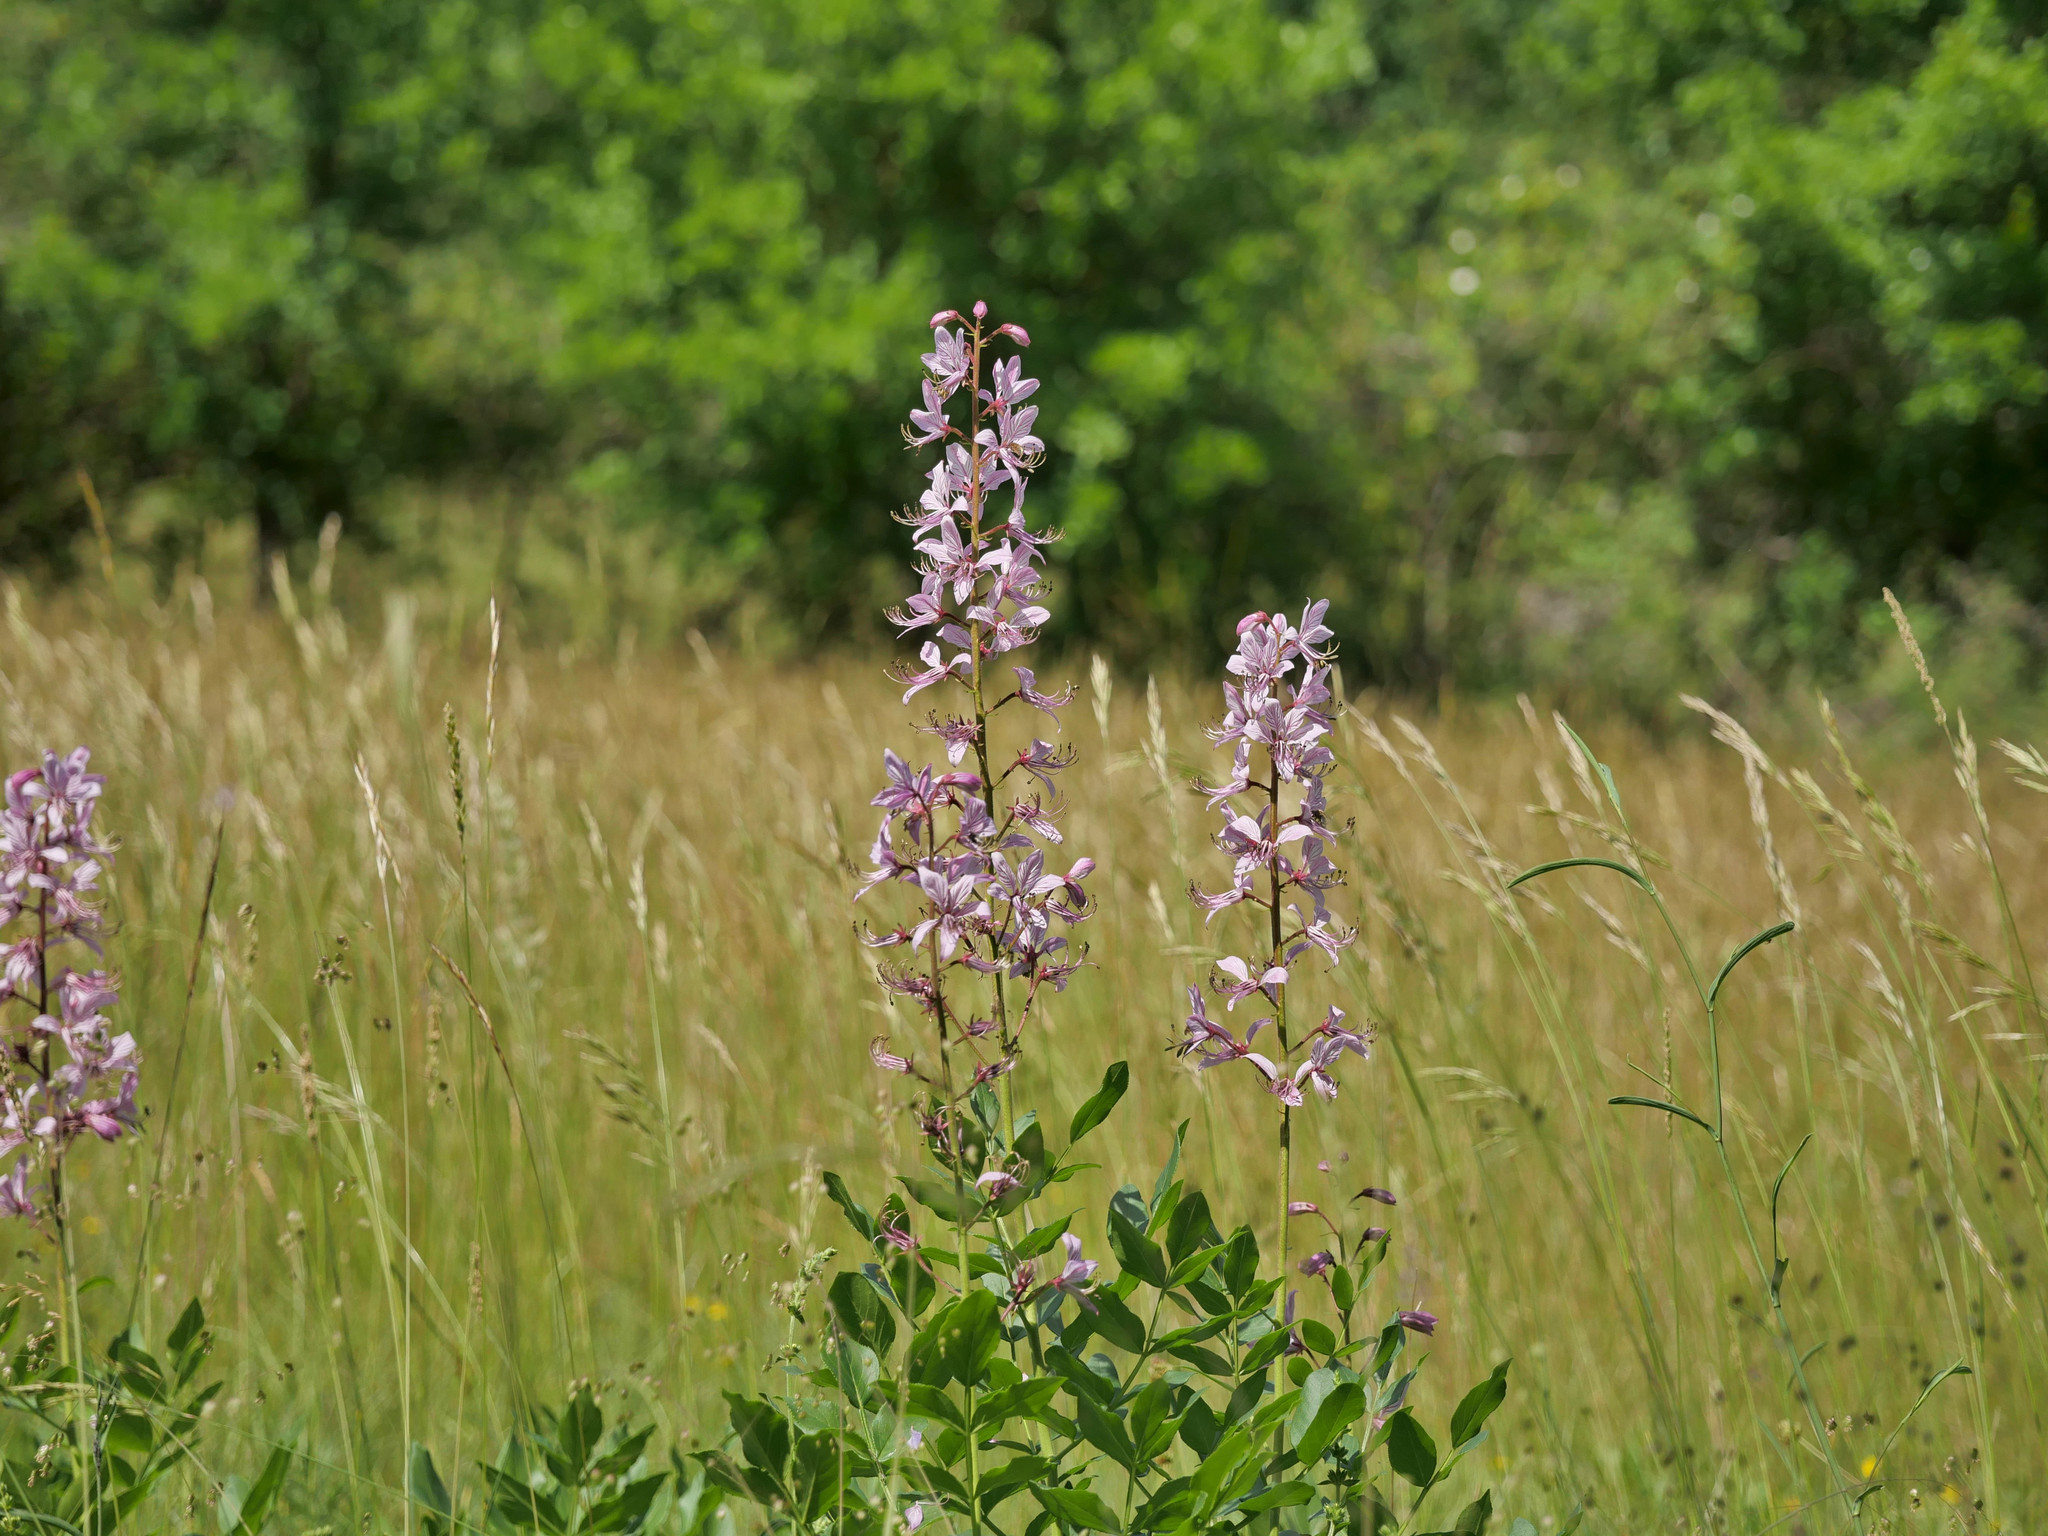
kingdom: Plantae
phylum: Tracheophyta
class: Magnoliopsida
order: Sapindales
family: Rutaceae
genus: Dictamnus
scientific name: Dictamnus albus
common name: Gasplant
